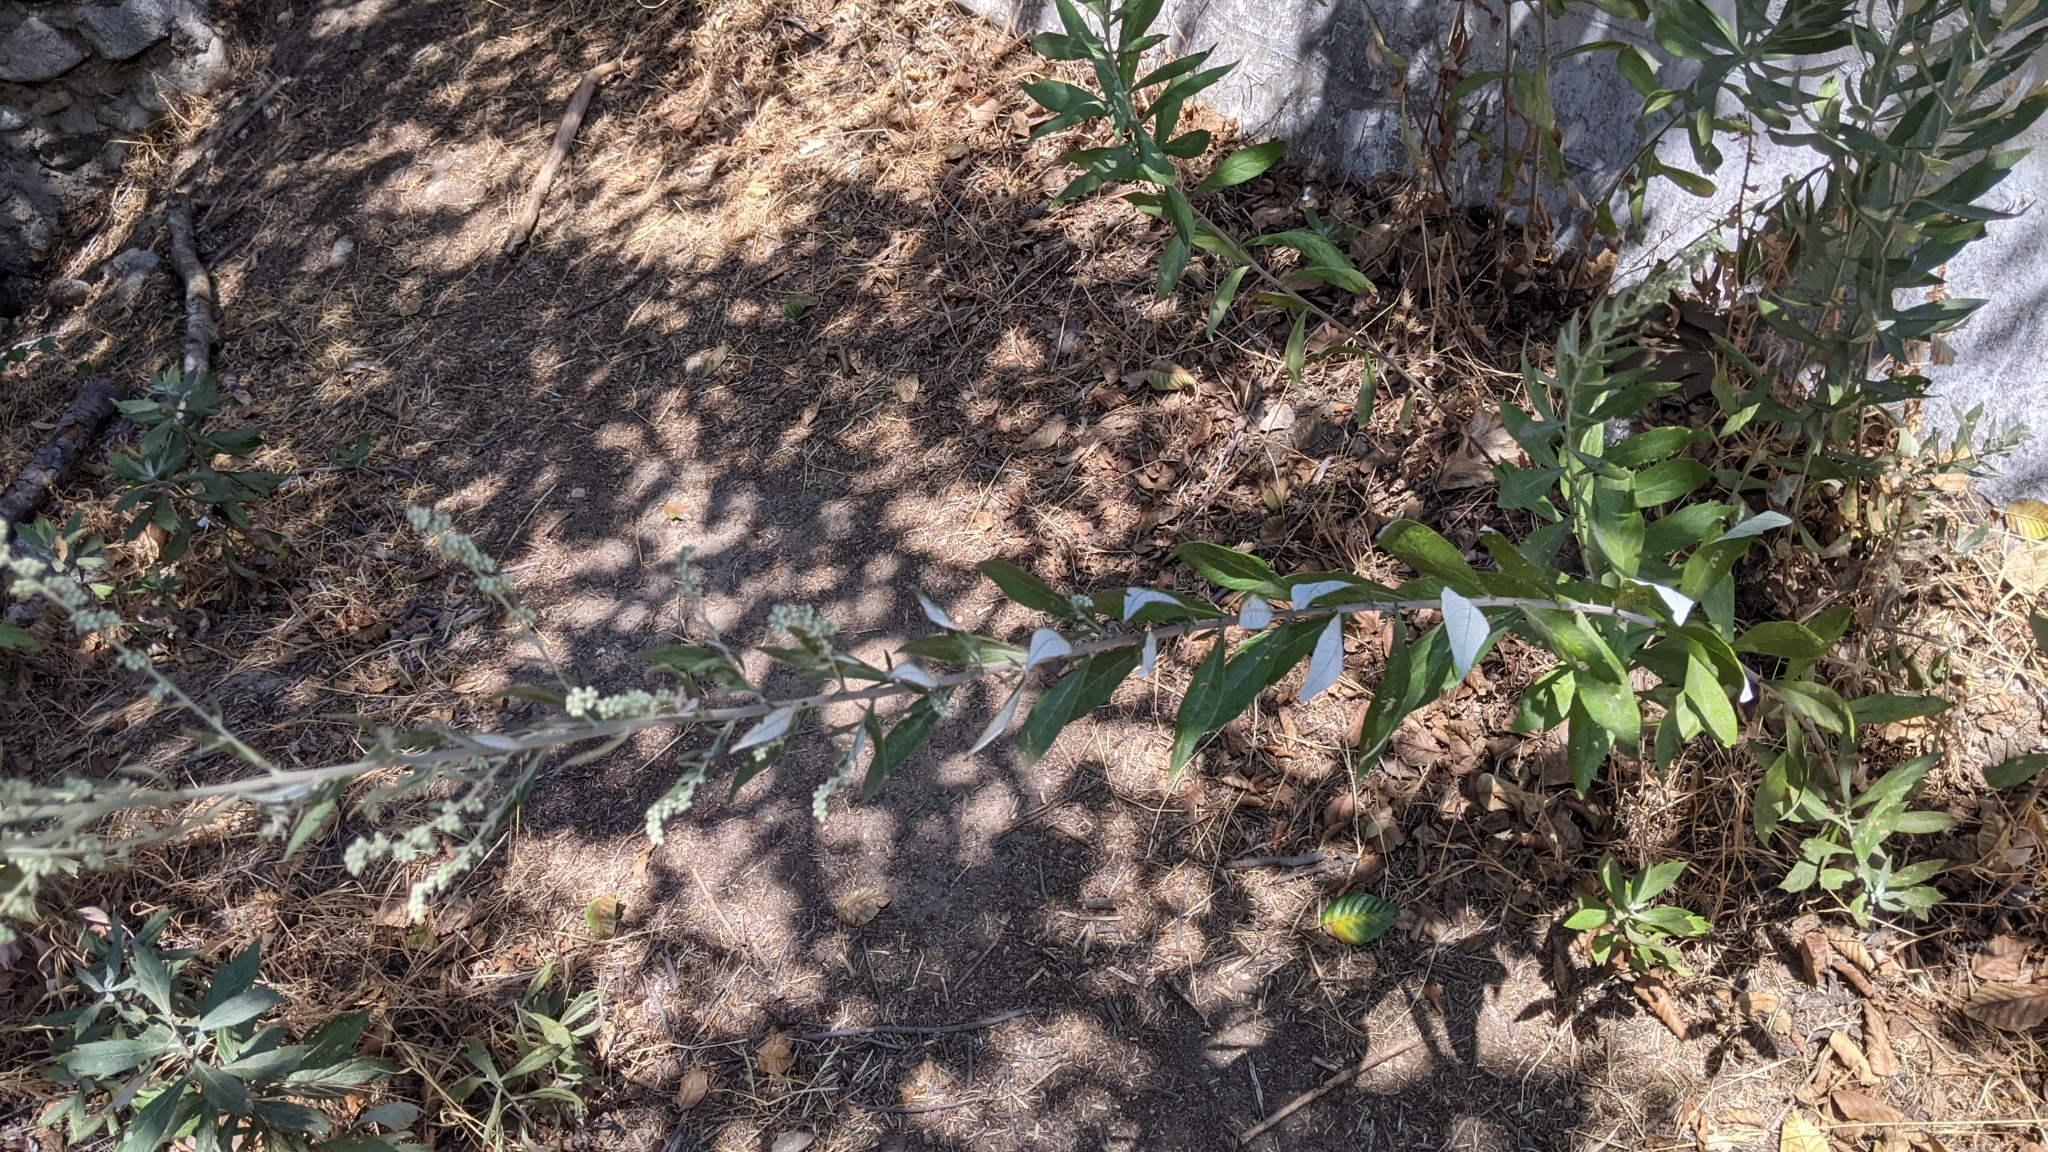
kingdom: Plantae
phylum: Tracheophyta
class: Magnoliopsida
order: Asterales
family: Asteraceae
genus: Artemisia
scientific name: Artemisia douglasiana
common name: Northwest mugwort
